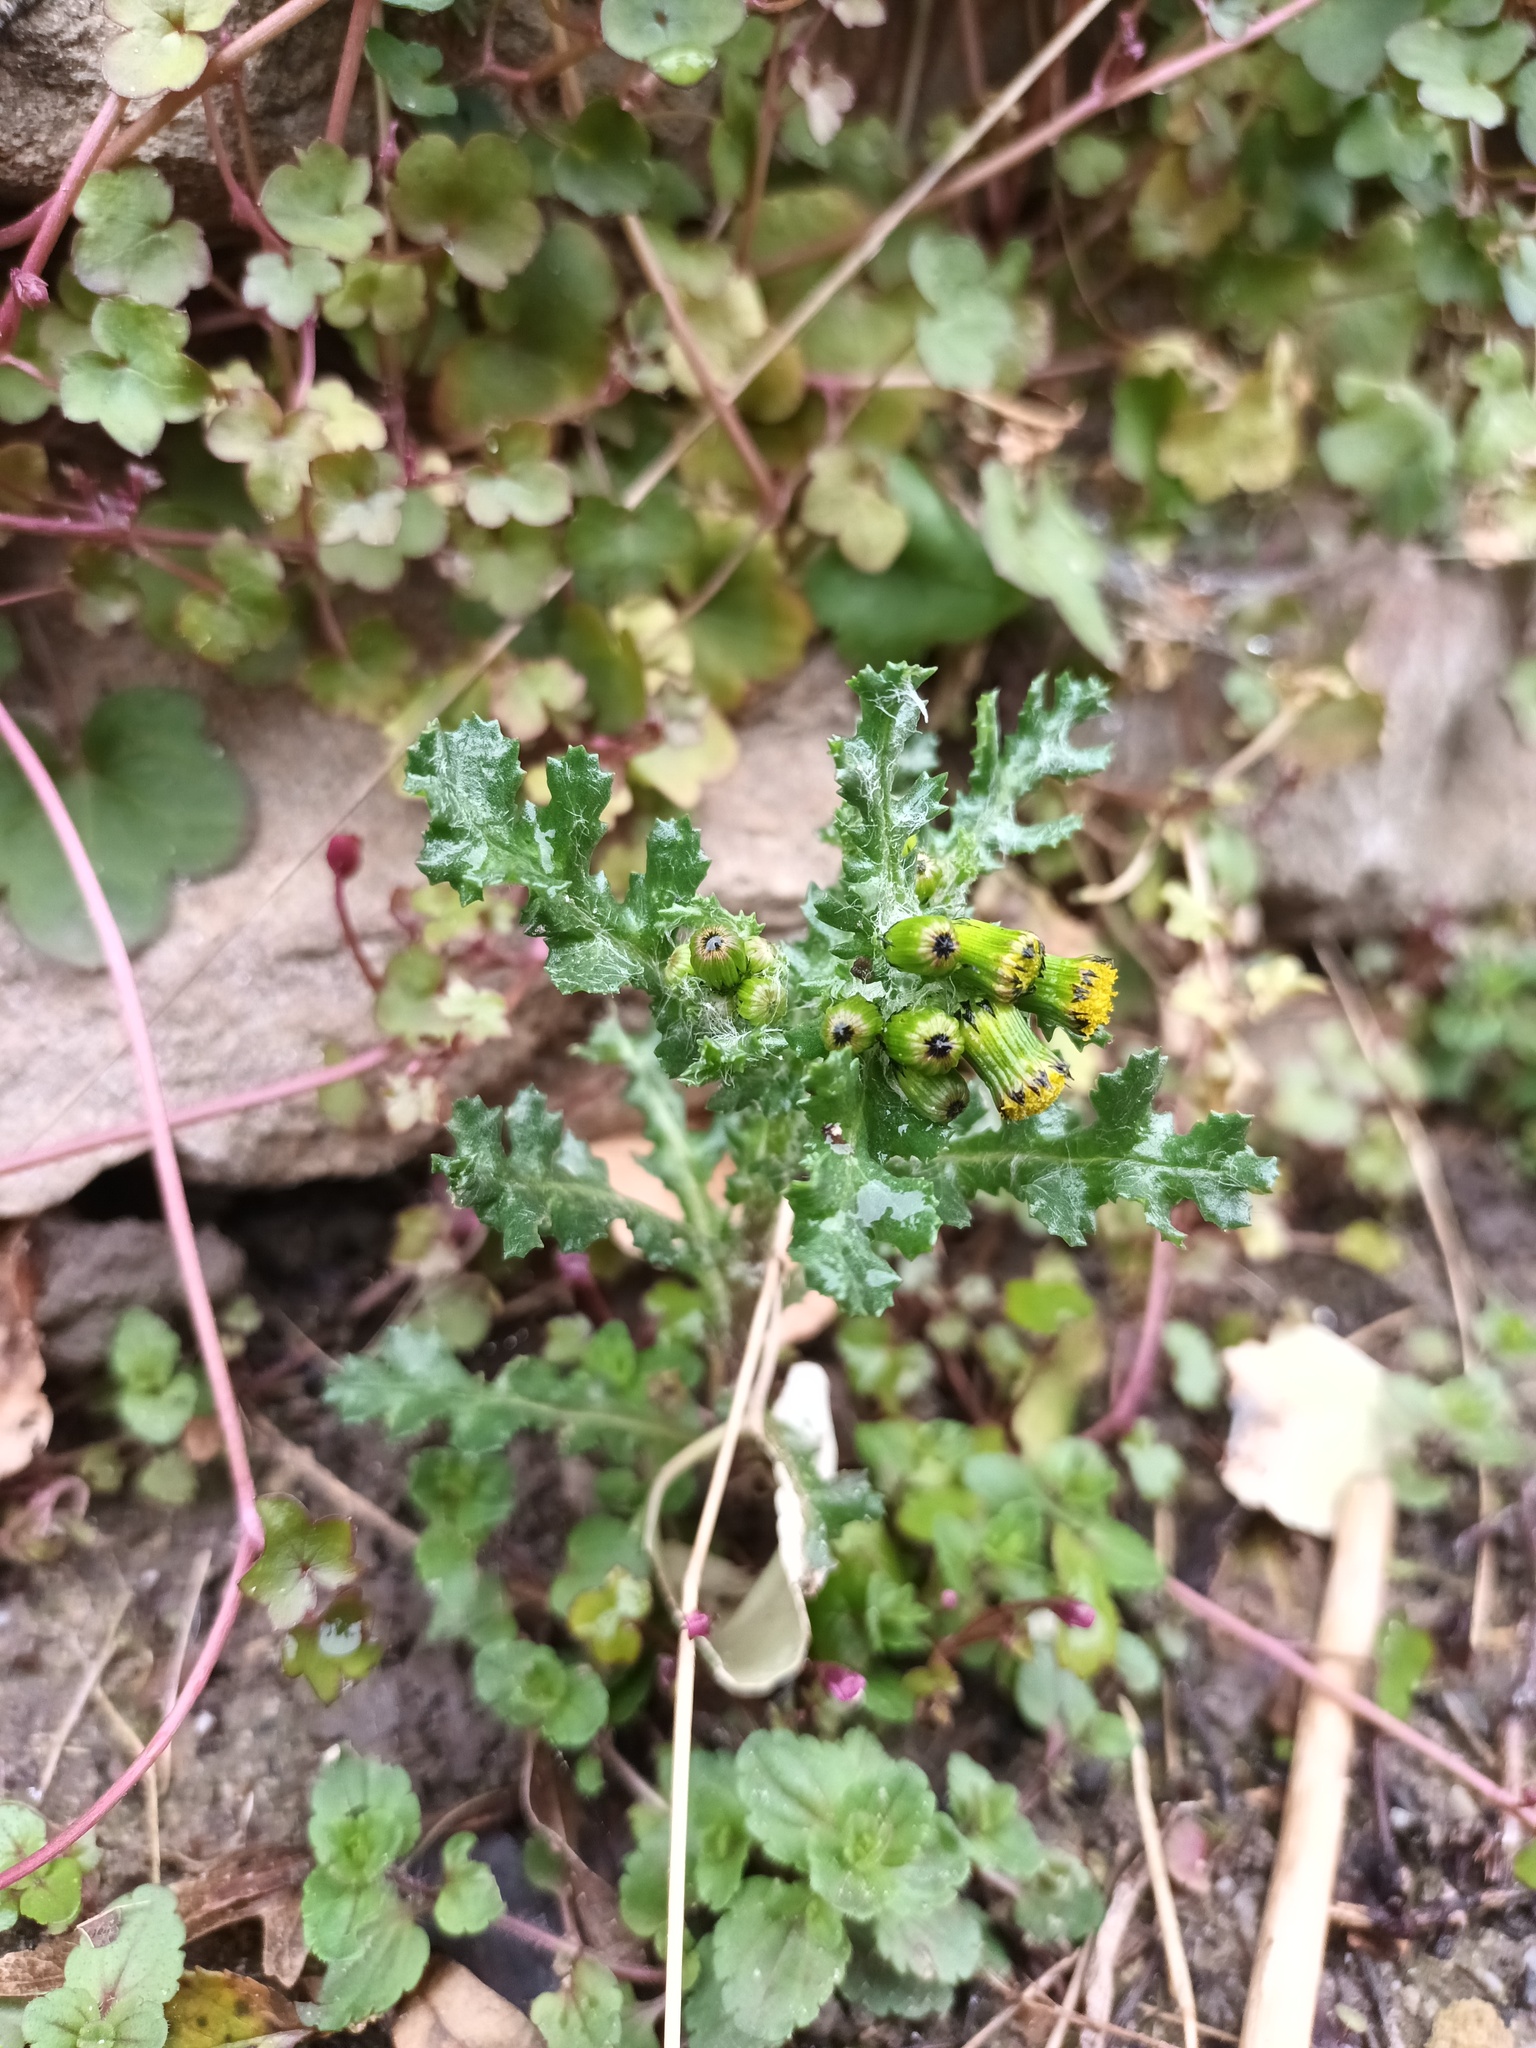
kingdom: Plantae
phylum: Tracheophyta
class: Magnoliopsida
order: Asterales
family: Asteraceae
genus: Senecio
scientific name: Senecio vulgaris
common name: Old-man-in-the-spring
